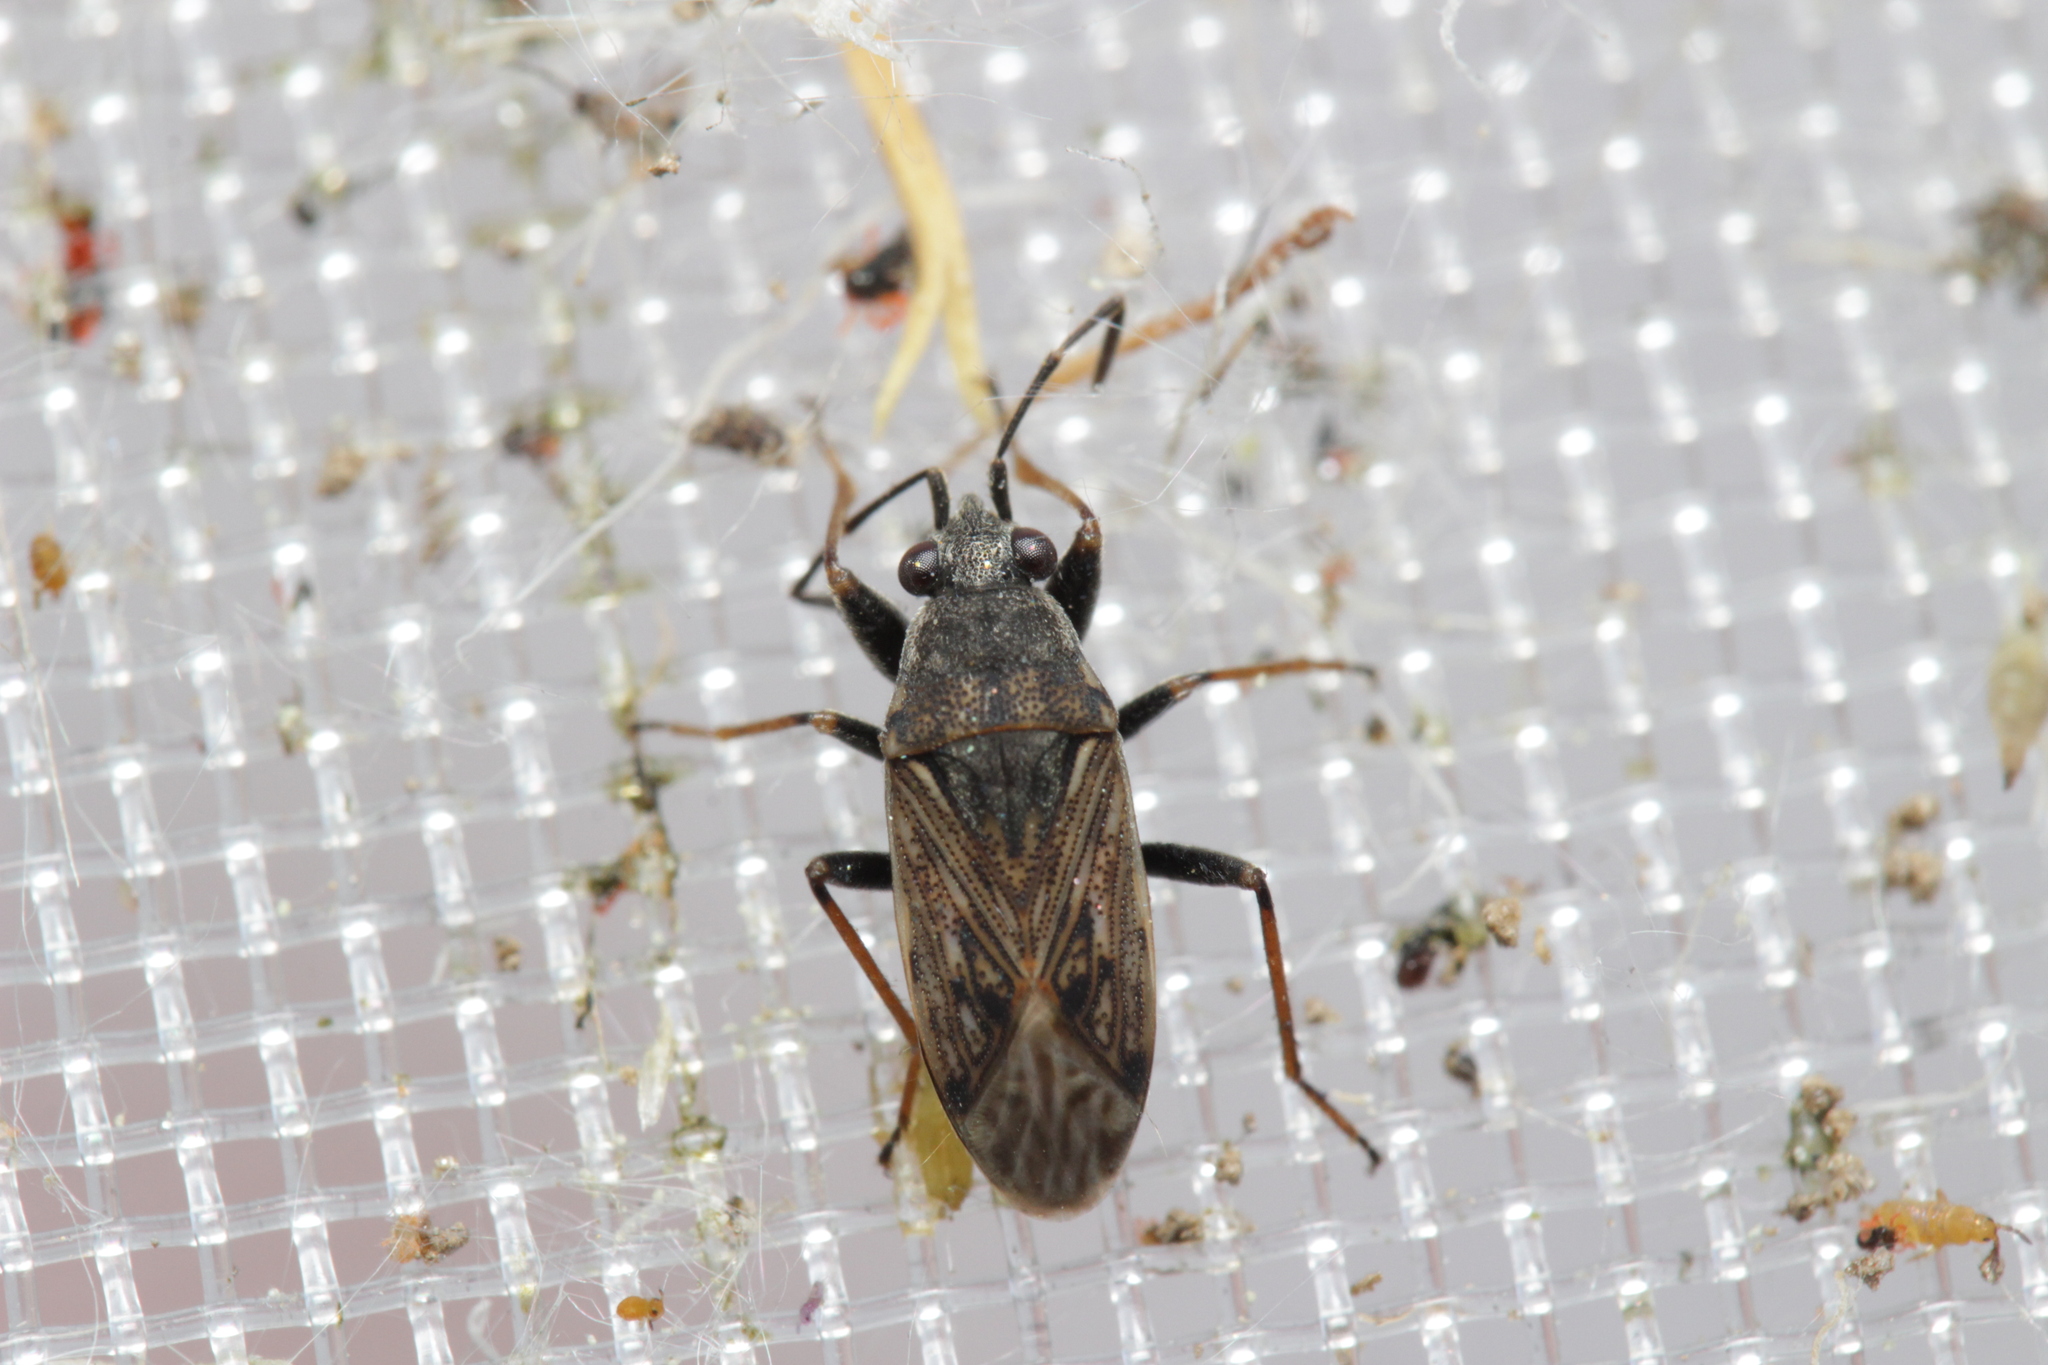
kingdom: Animalia
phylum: Arthropoda
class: Insecta
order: Hemiptera
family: Rhyparochromidae
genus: Peritrechus
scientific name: Peritrechus gracilicornis
